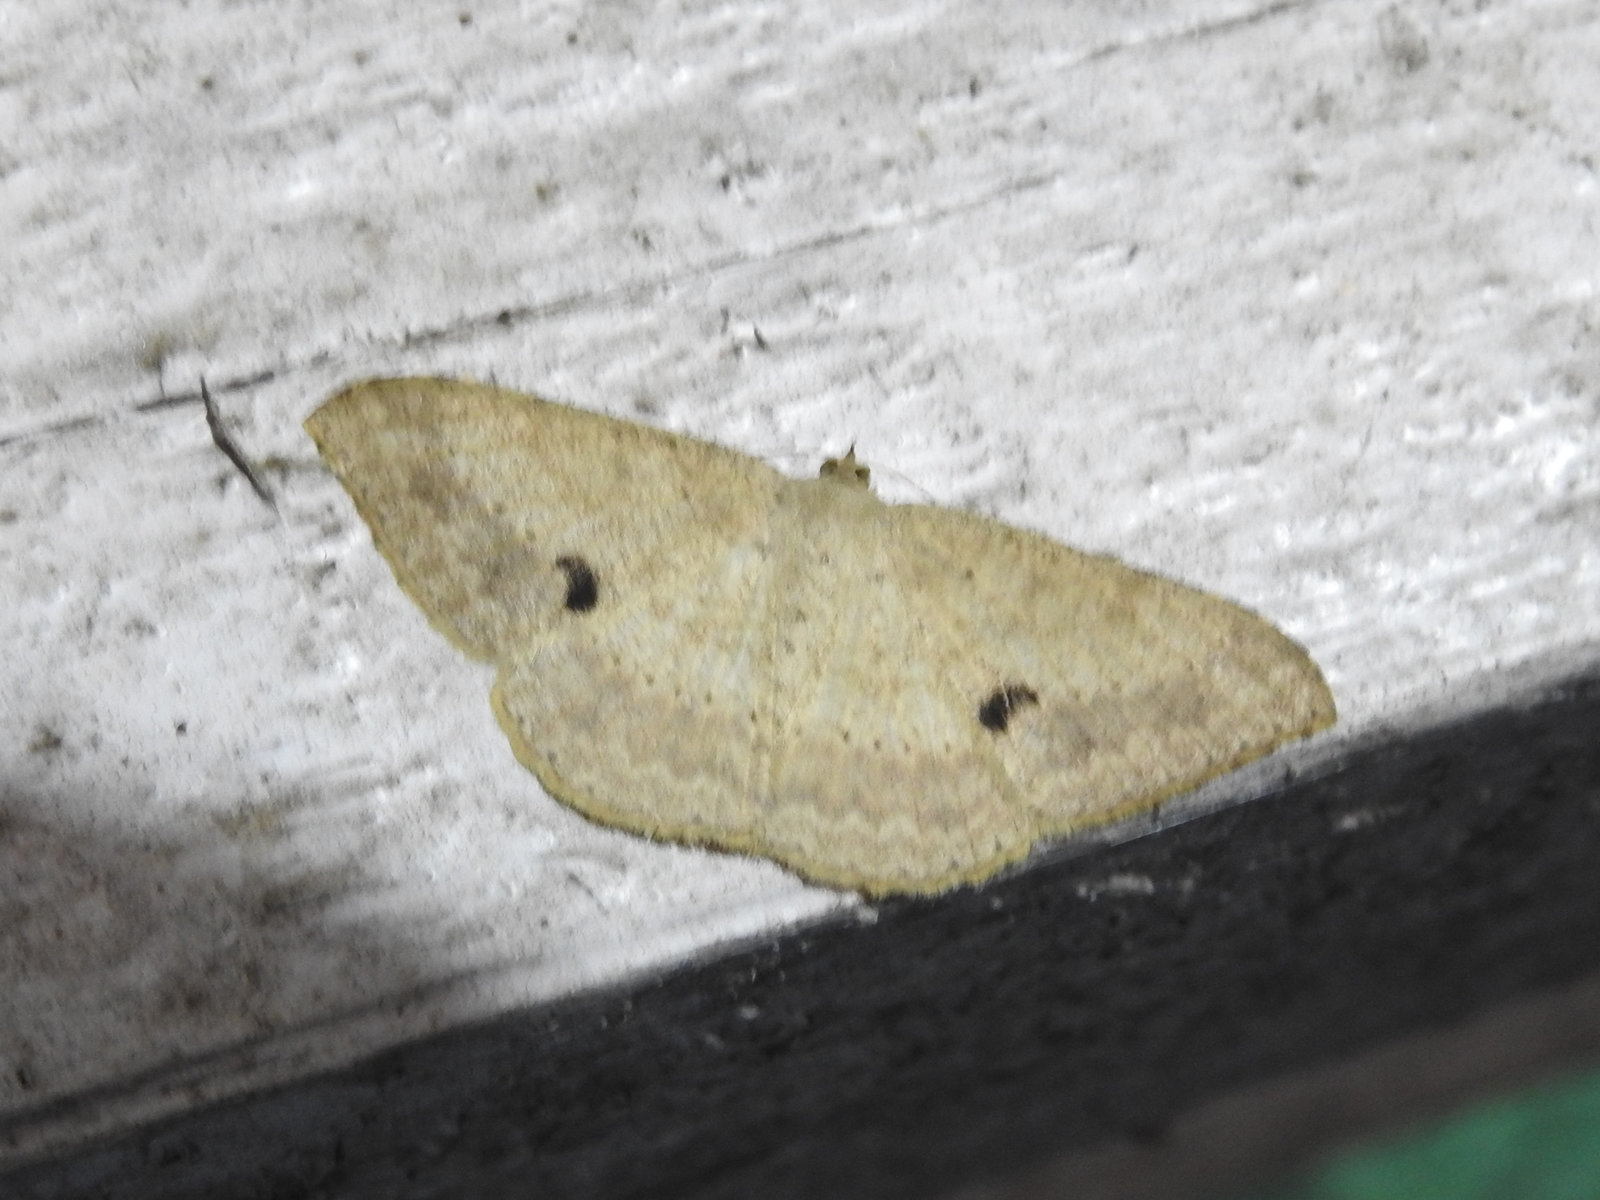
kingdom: Animalia
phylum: Arthropoda
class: Insecta
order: Lepidoptera
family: Geometridae
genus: Luxiaria
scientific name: Luxiaria tephrosaria
